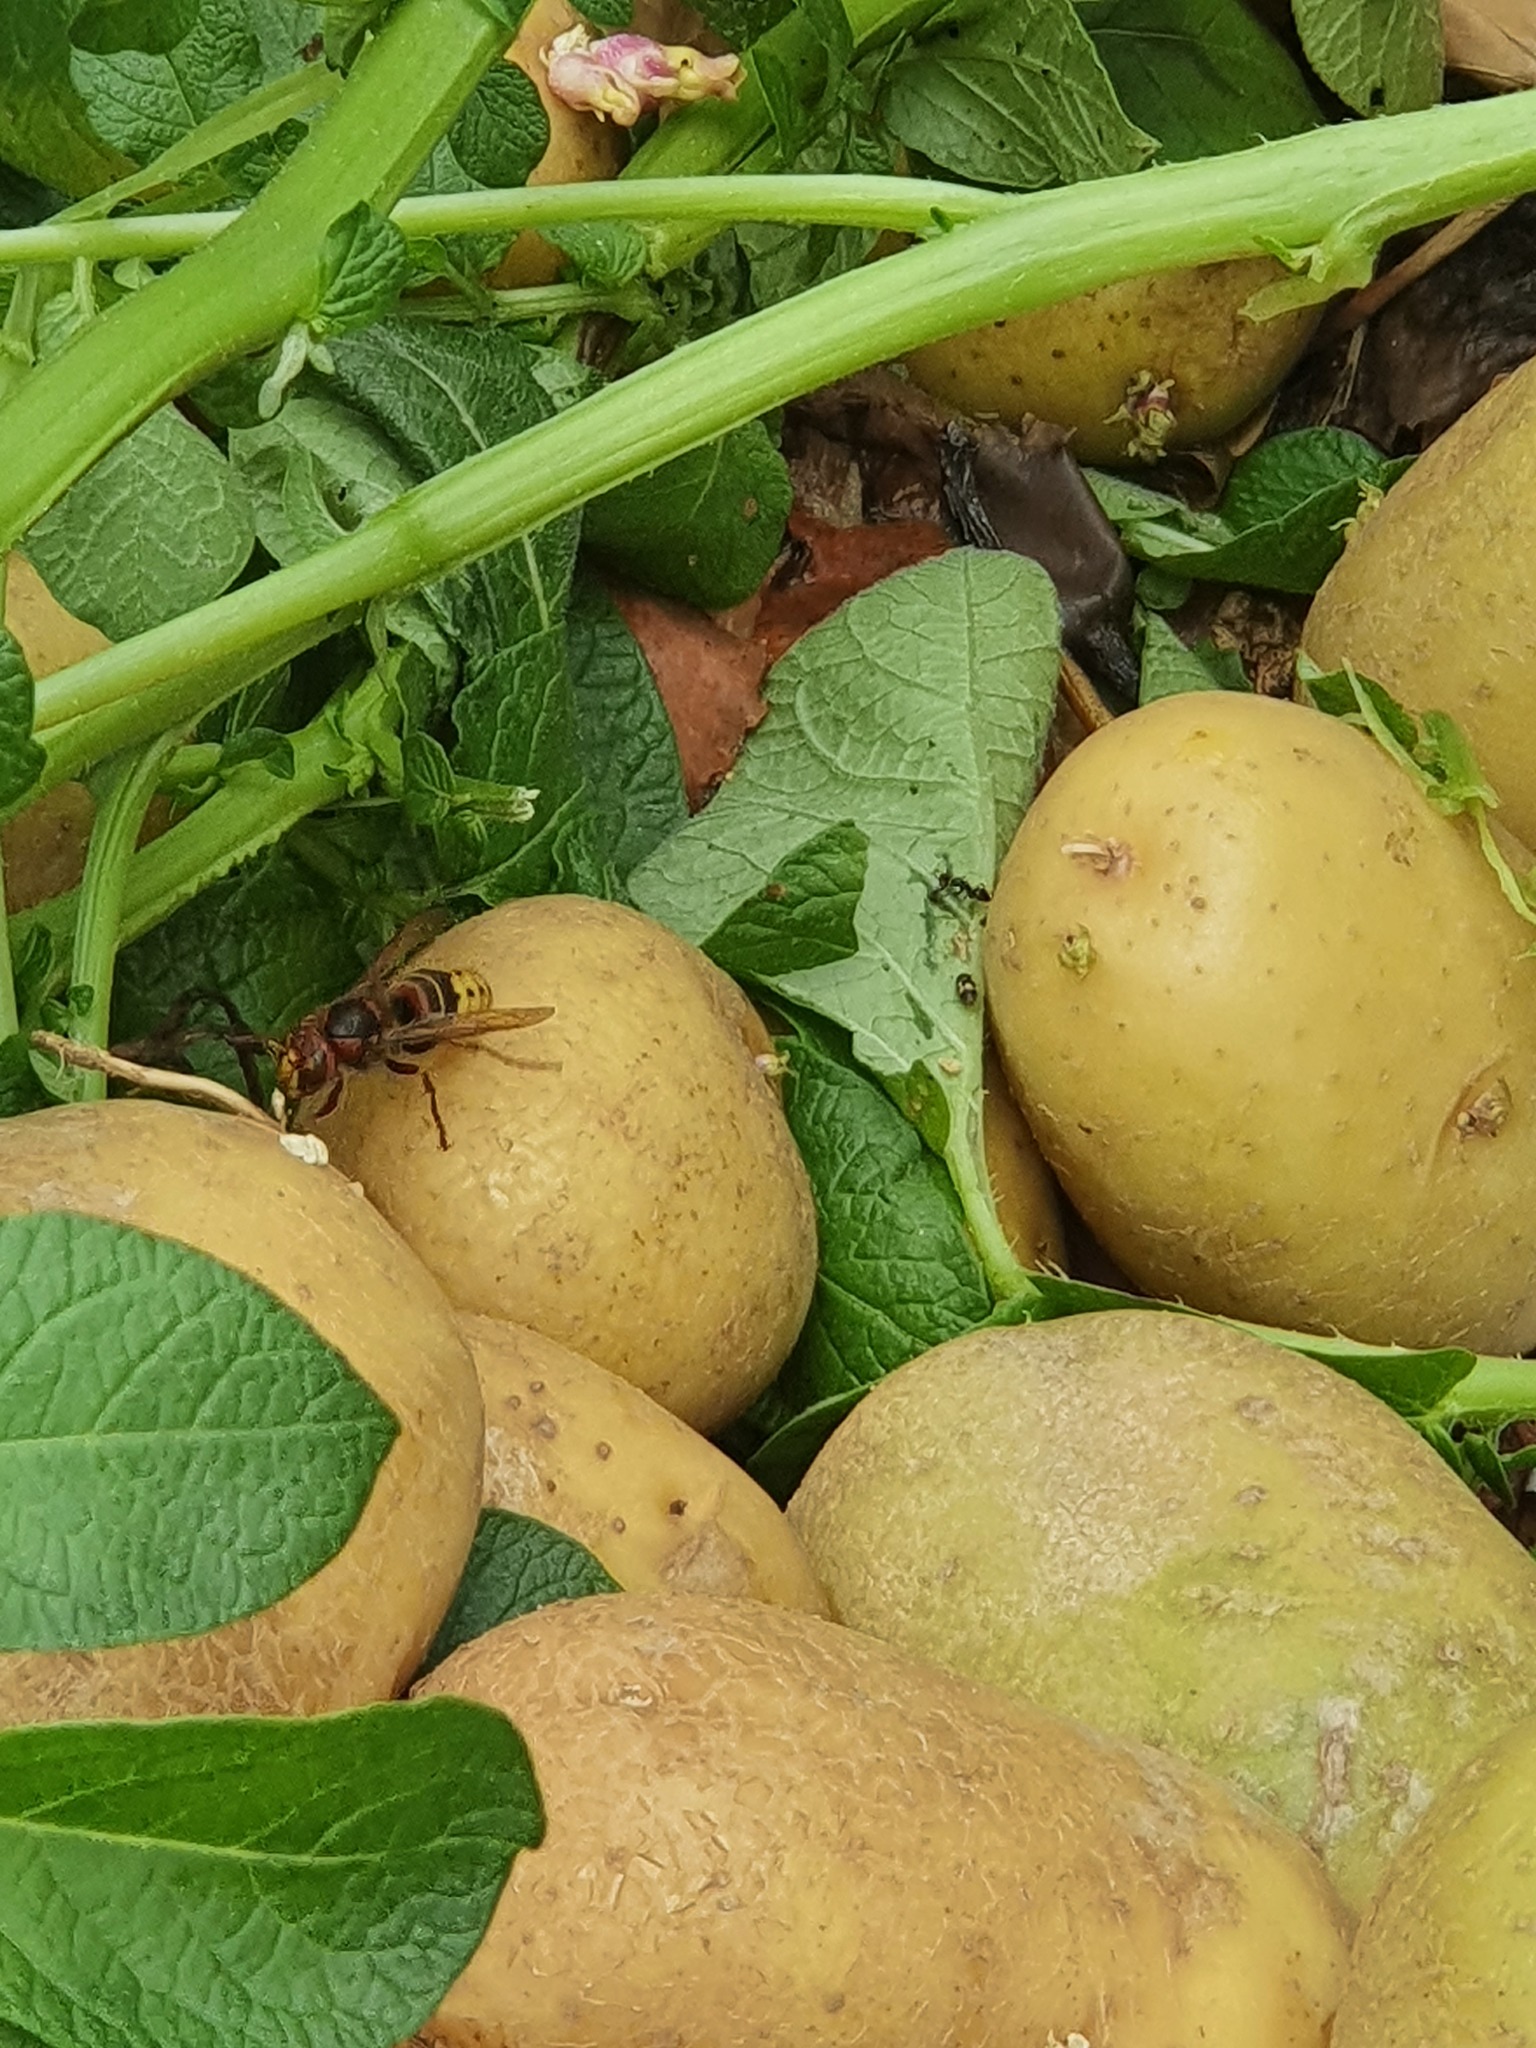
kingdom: Animalia
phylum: Arthropoda
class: Insecta
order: Hymenoptera
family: Vespidae
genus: Vespa
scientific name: Vespa crabro
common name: Hornet
